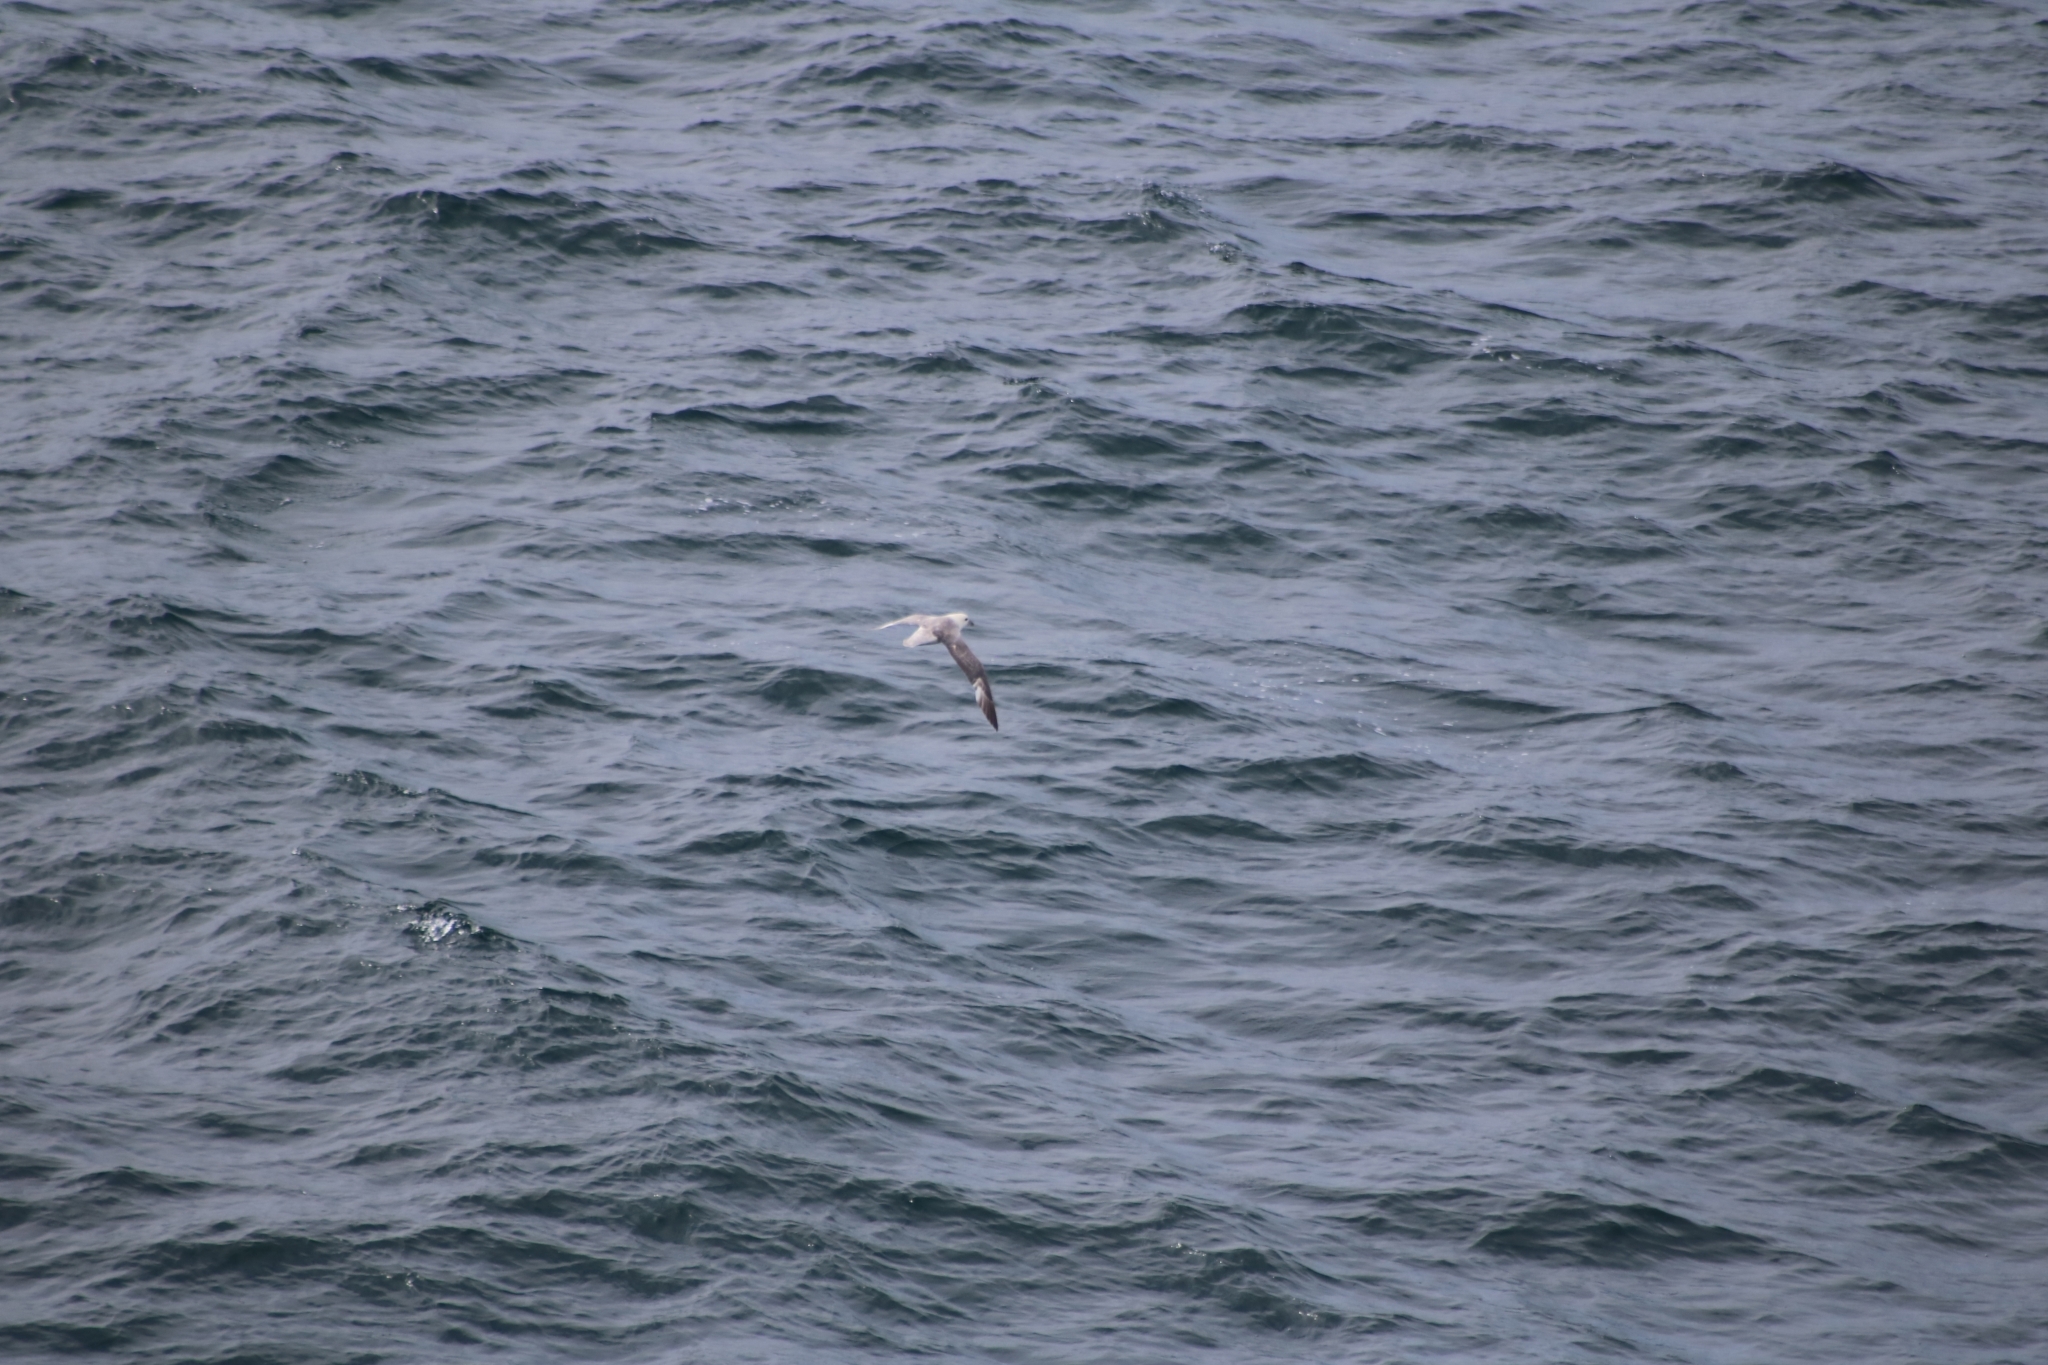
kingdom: Animalia
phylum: Chordata
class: Aves
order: Procellariiformes
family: Procellariidae
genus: Fulmarus
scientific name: Fulmarus glacialis
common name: Northern fulmar
